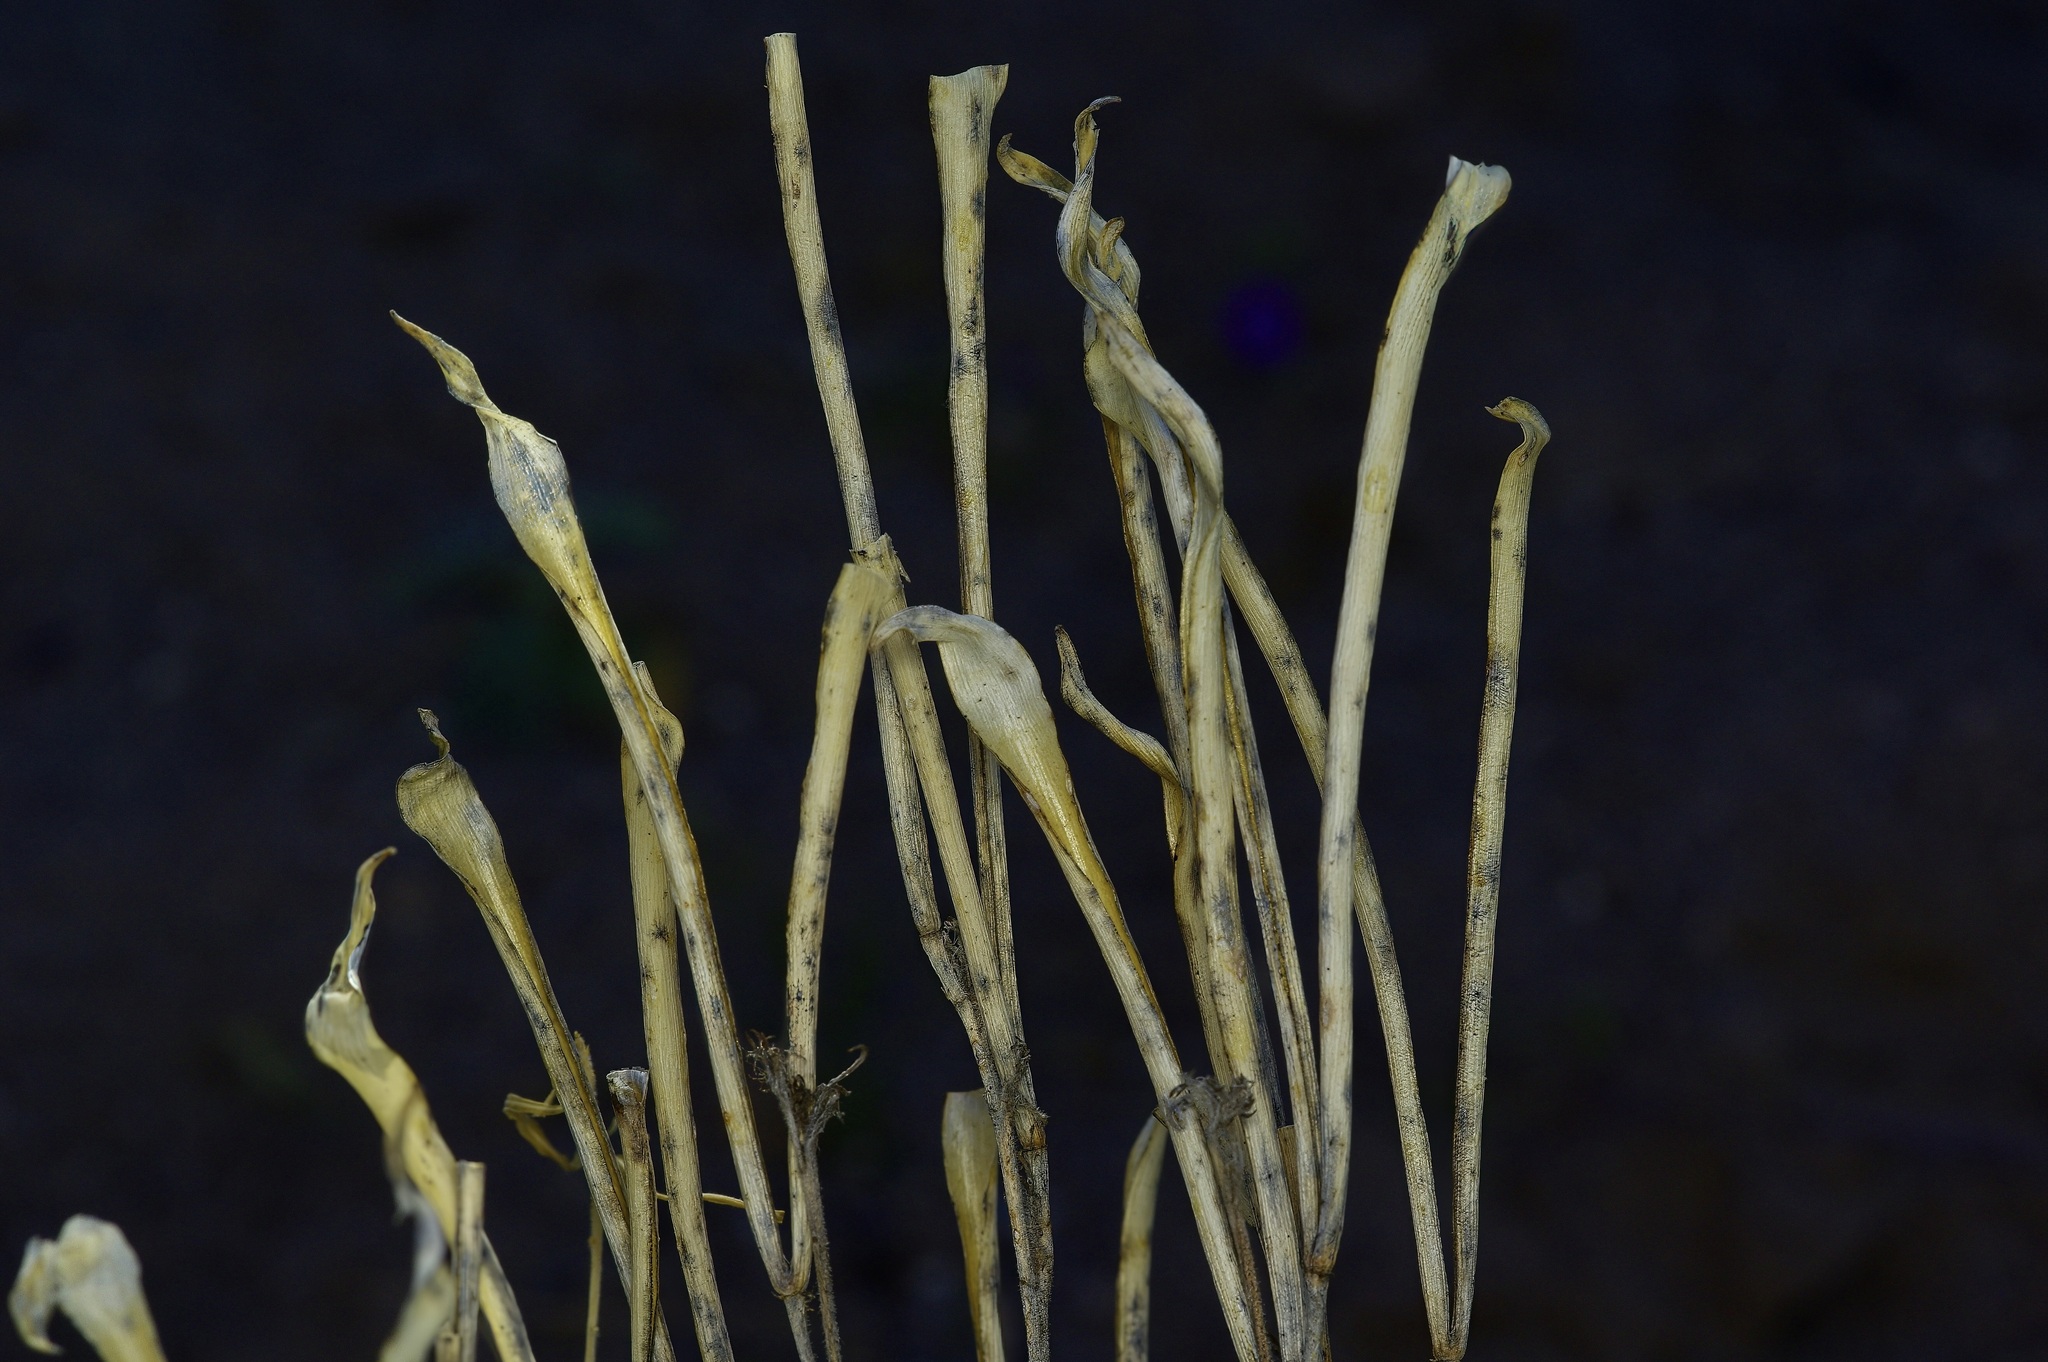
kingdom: Plantae
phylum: Tracheophyta
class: Magnoliopsida
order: Gentianales
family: Apocynaceae
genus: Amsonia
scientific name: Amsonia palmeri
